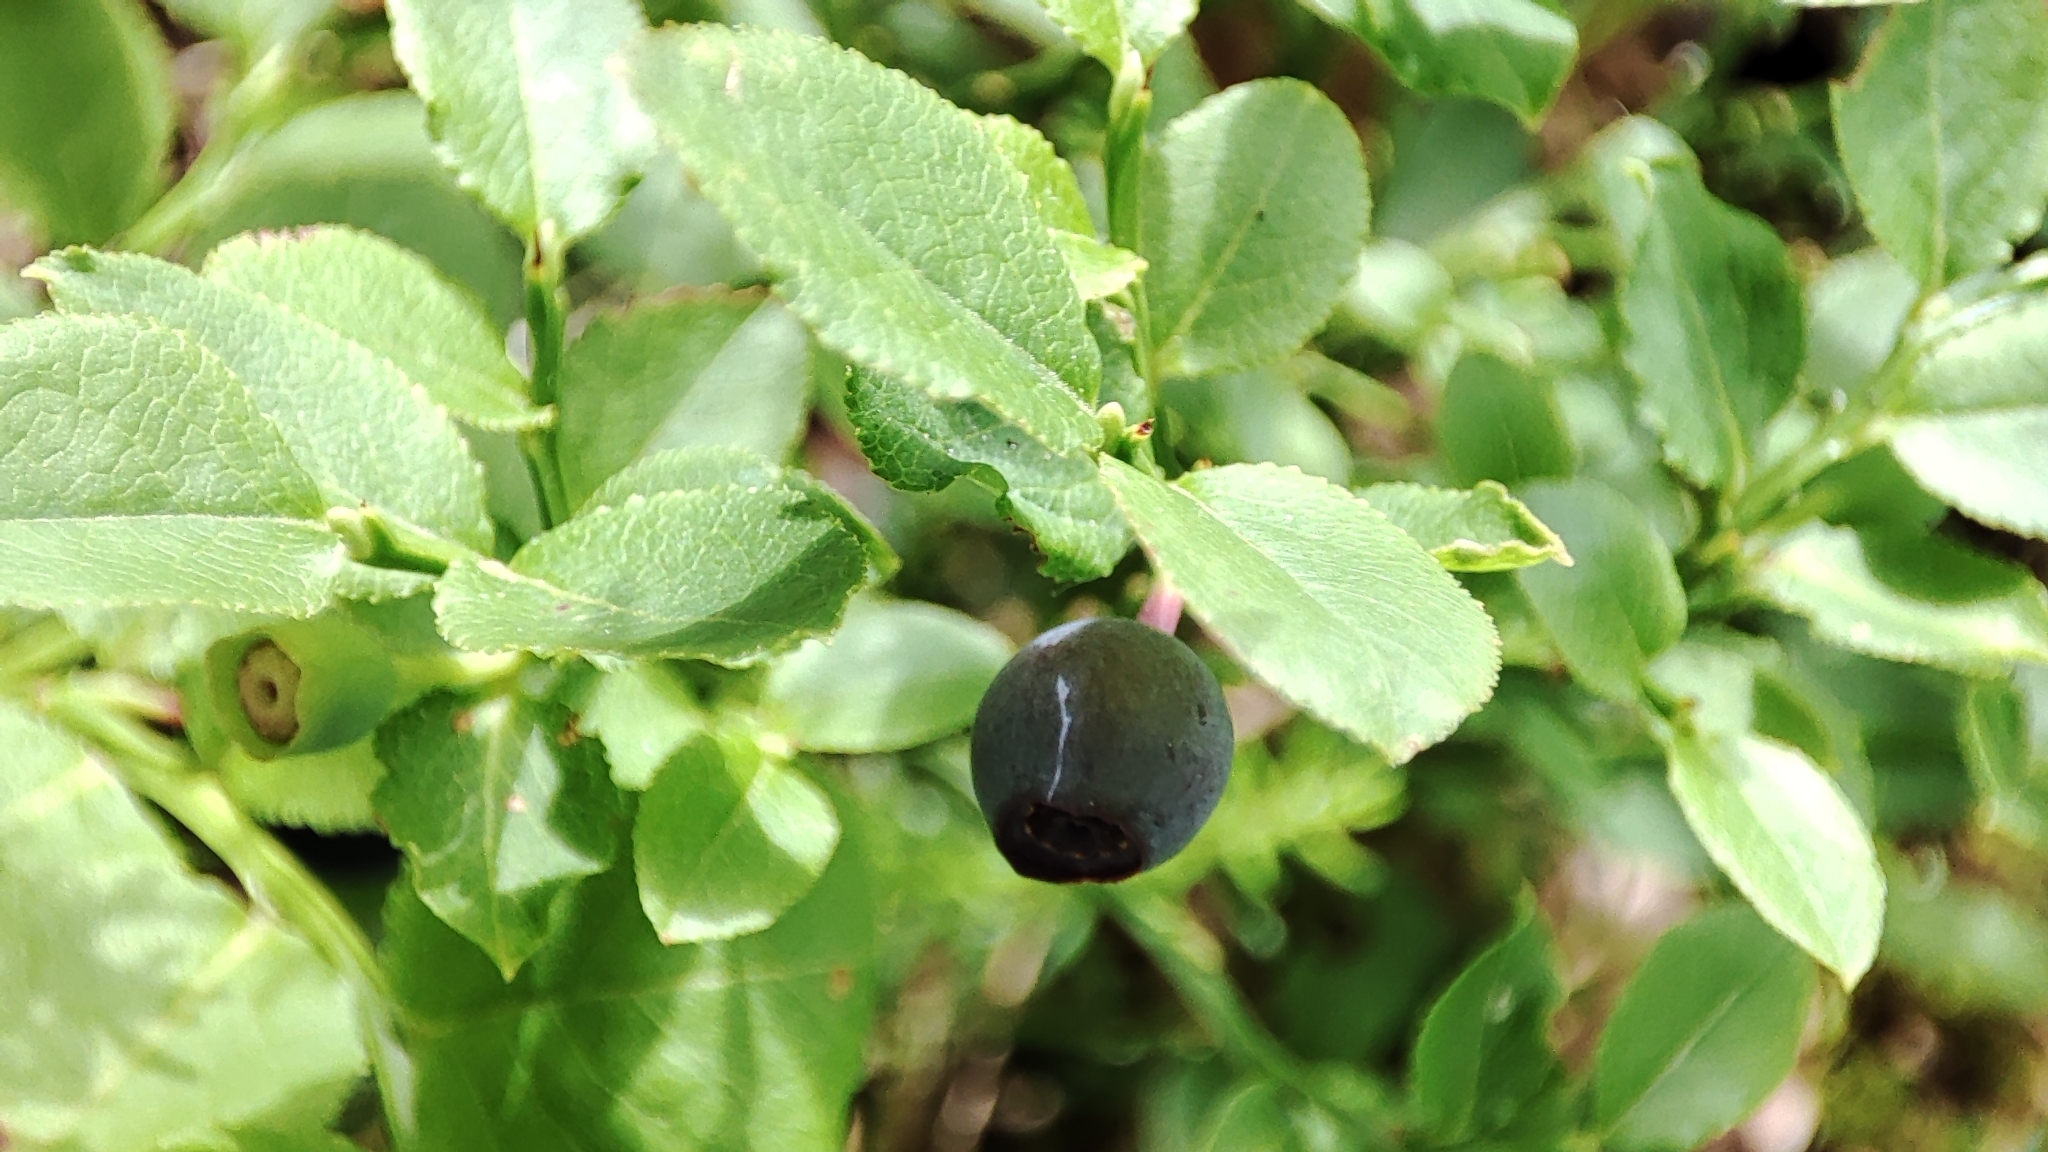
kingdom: Plantae
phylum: Tracheophyta
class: Magnoliopsida
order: Ericales
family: Ericaceae
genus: Vaccinium
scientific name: Vaccinium myrtillus
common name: Bilberry
